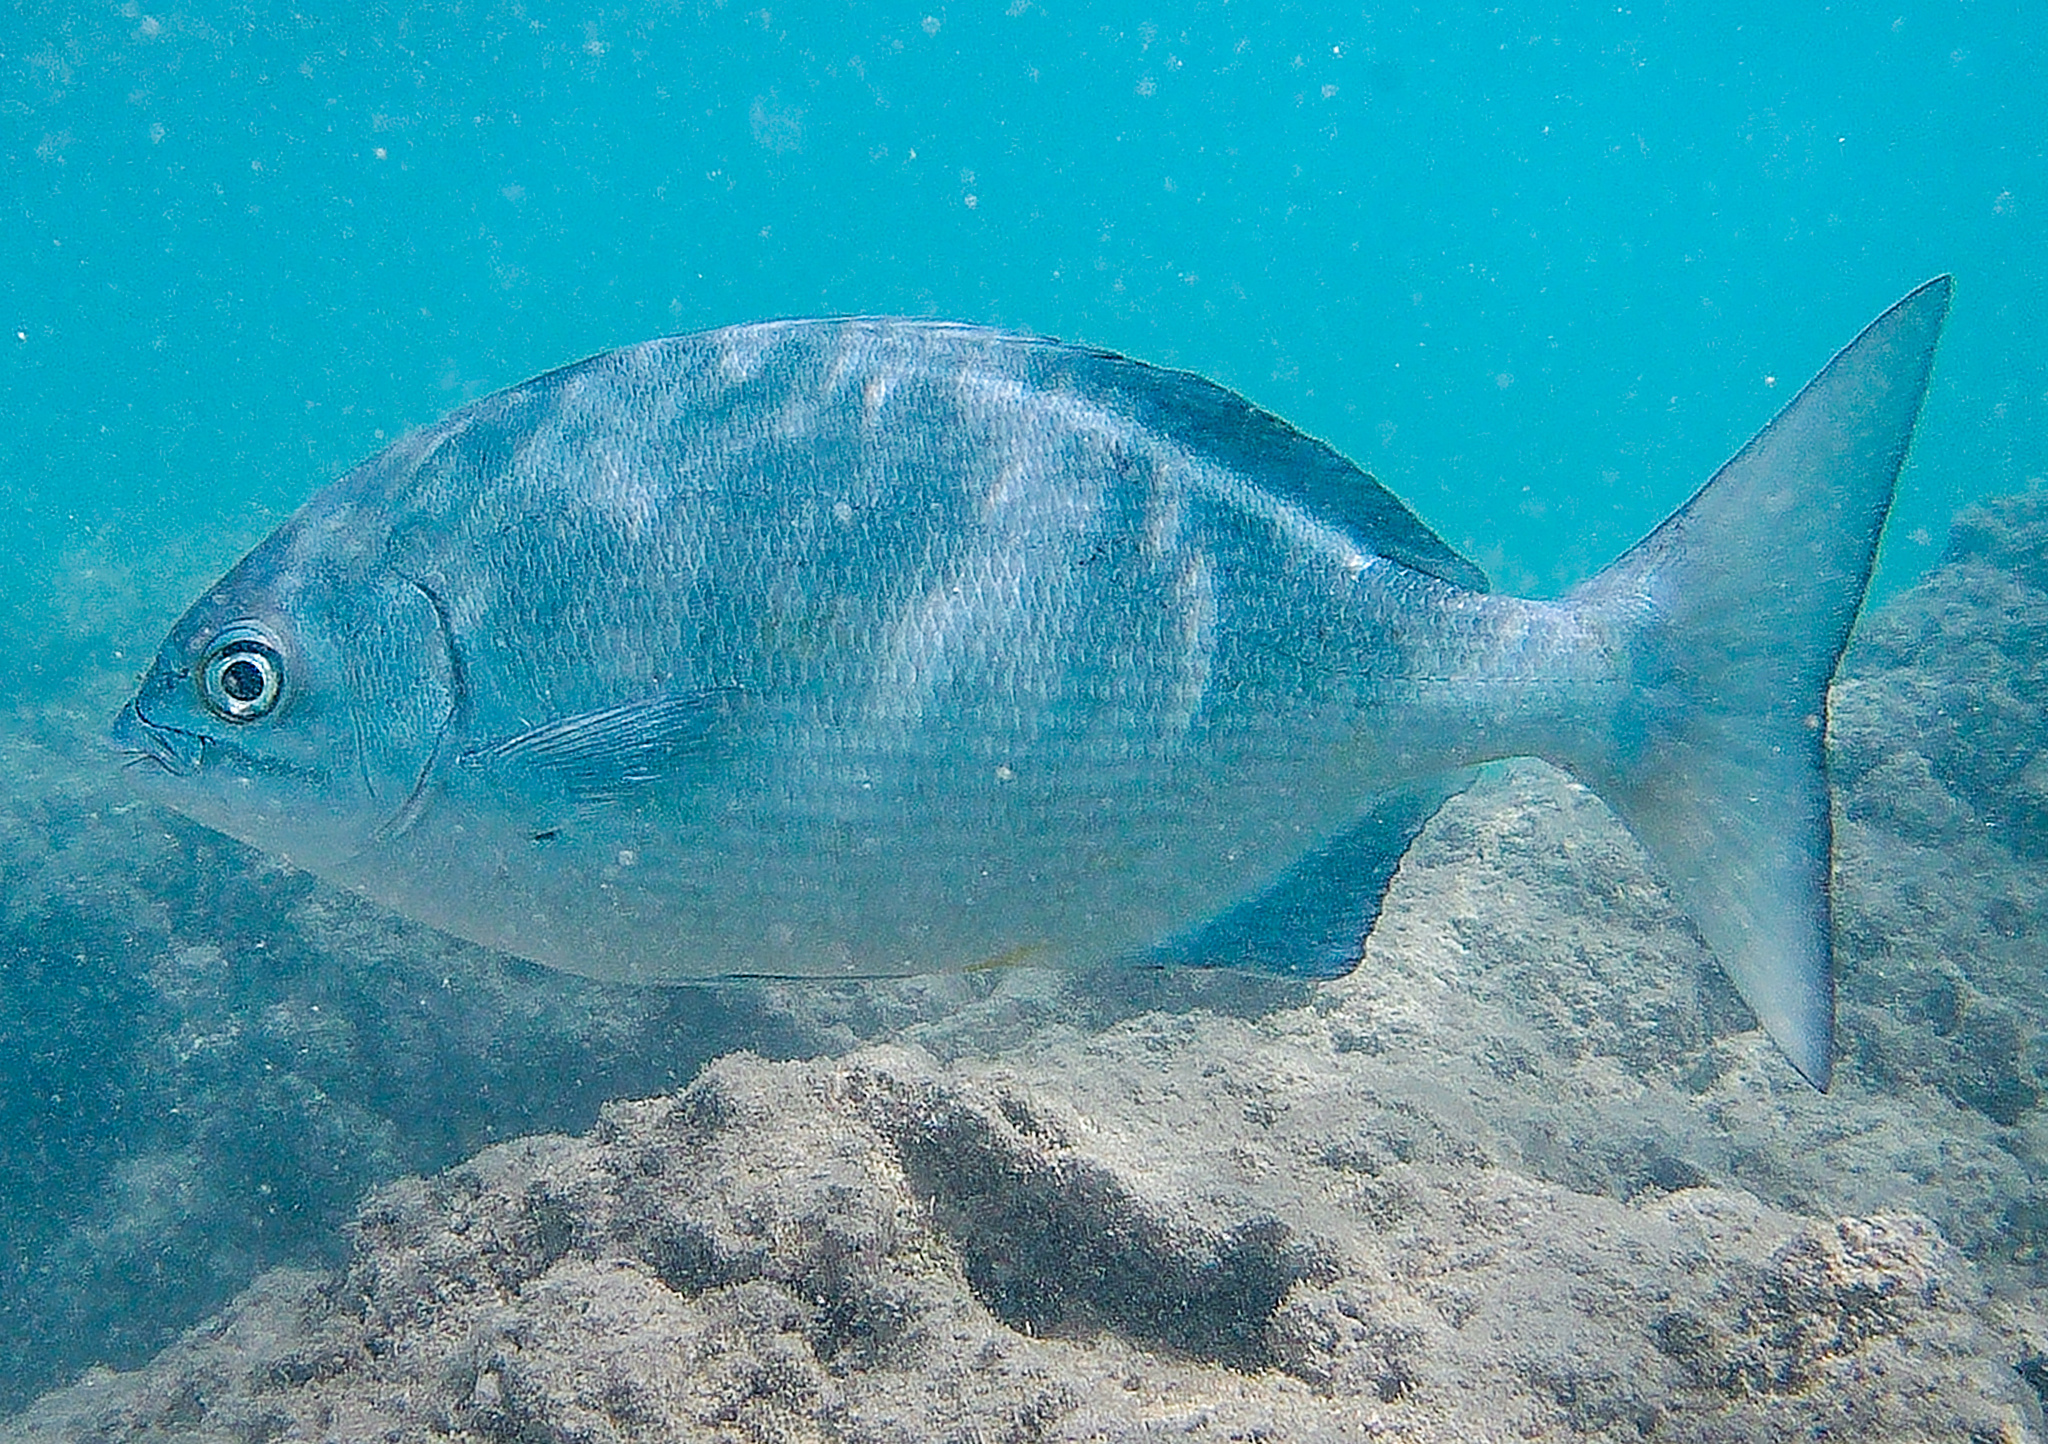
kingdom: Animalia
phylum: Chordata
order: Perciformes
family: Kyphosidae
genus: Kyphosus
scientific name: Kyphosus sectatrix
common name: Bermuda chub
